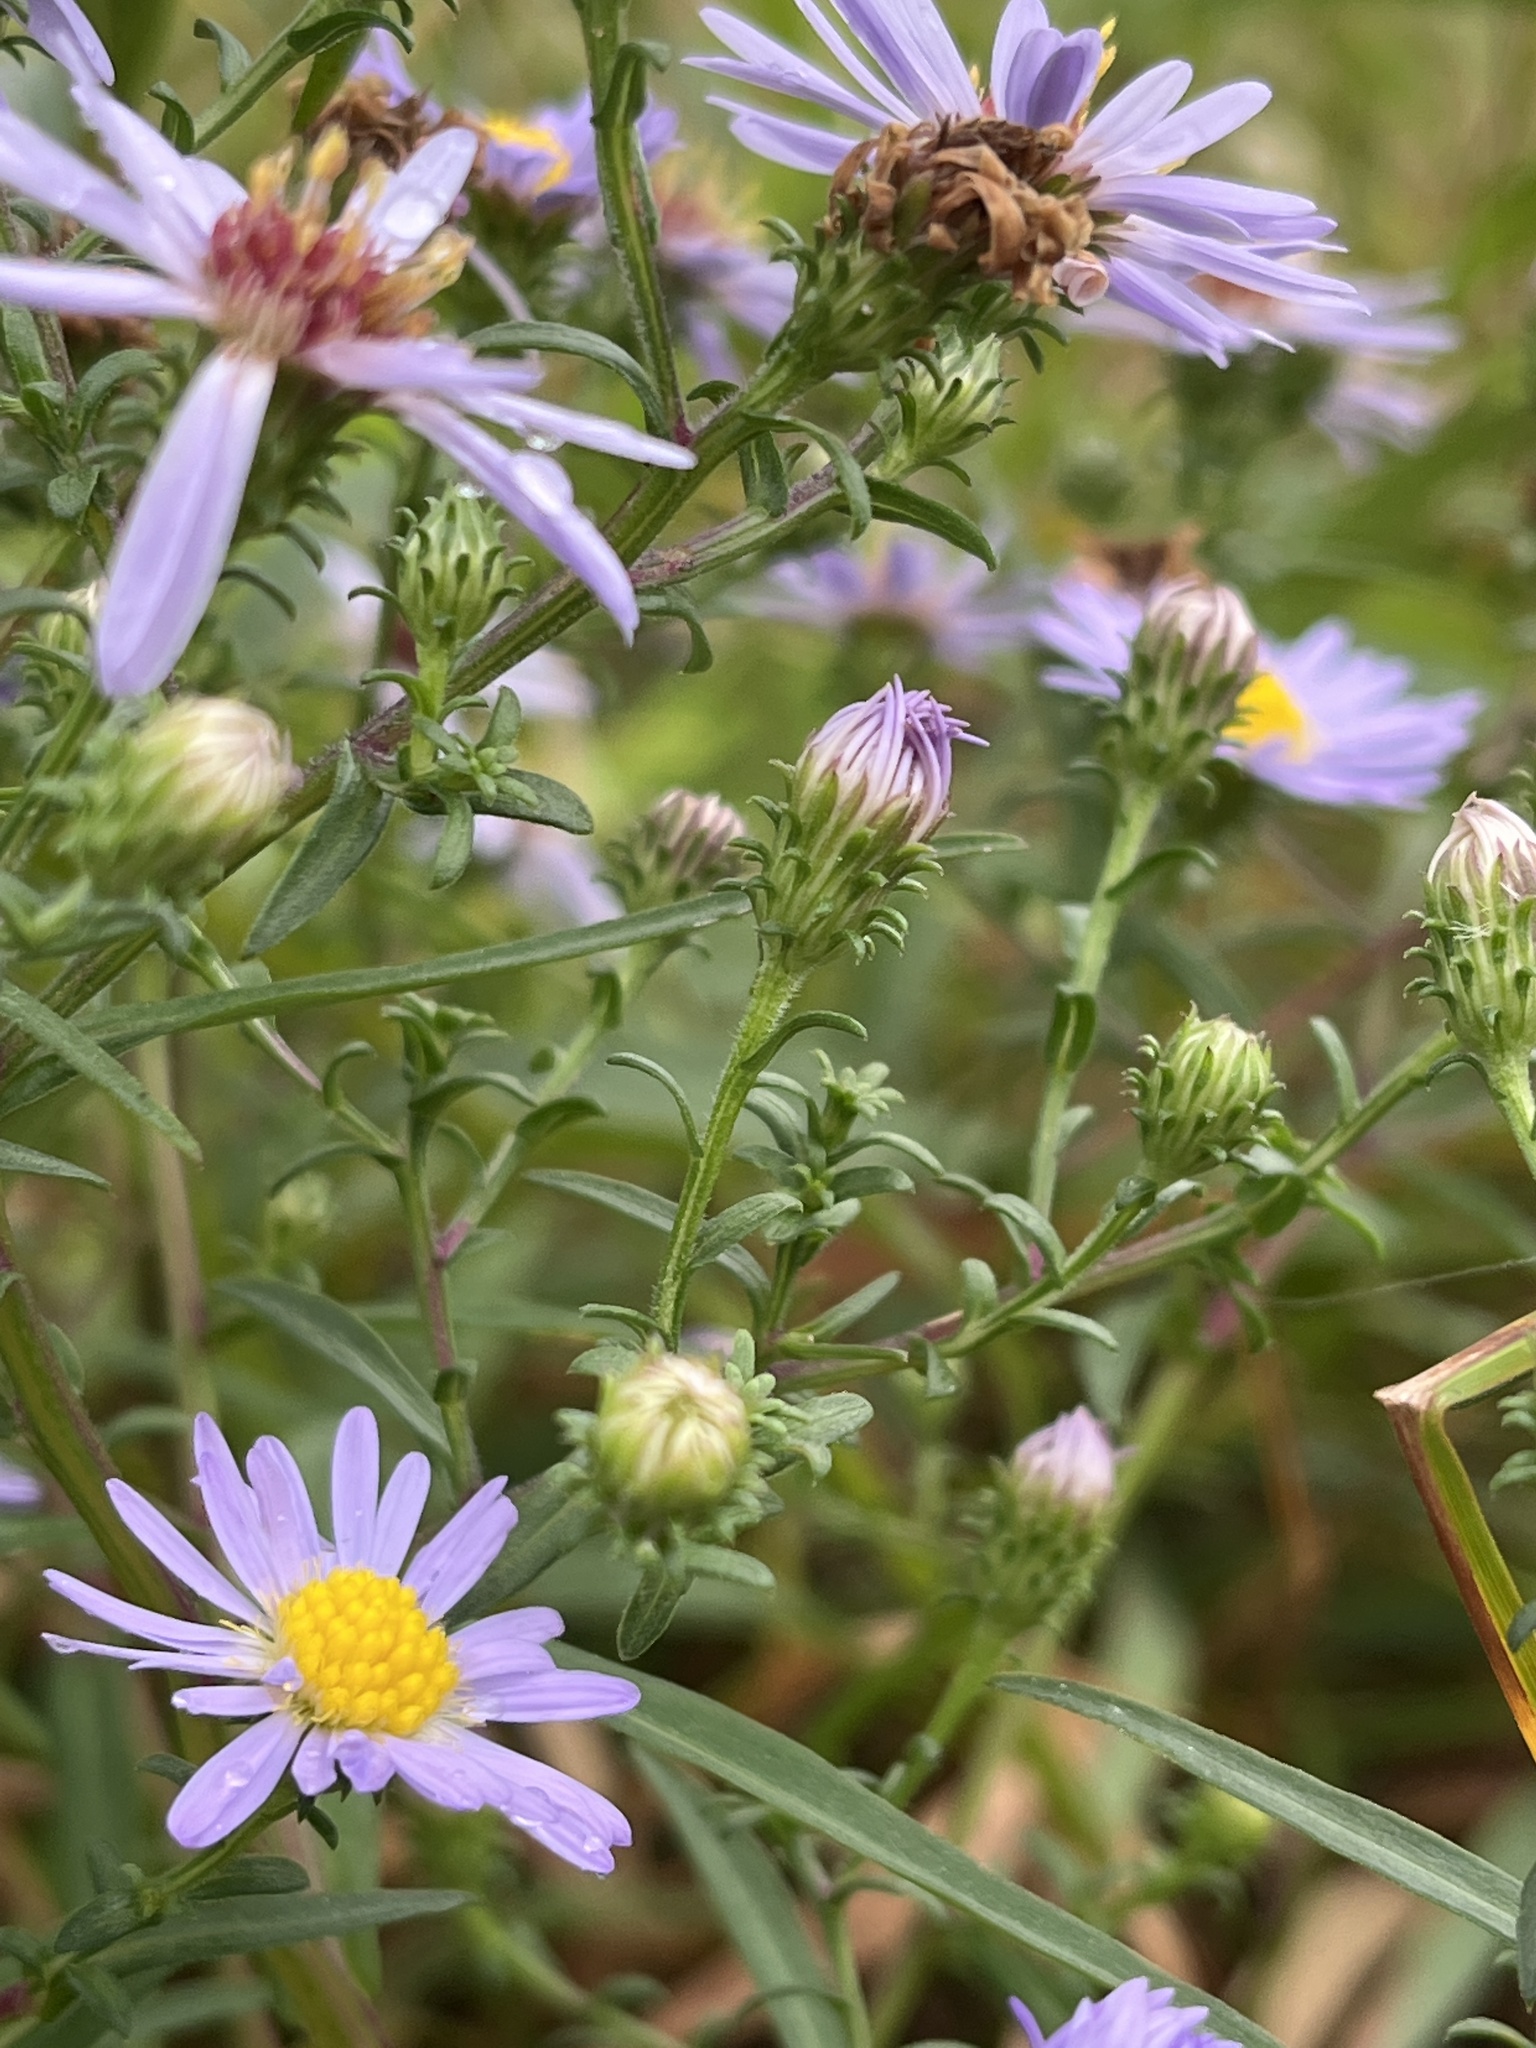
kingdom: Plantae
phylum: Tracheophyta
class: Magnoliopsida
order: Asterales
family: Asteraceae
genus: Symphyotrichum
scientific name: Symphyotrichum novi-belgii
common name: Michaelmas daisy
